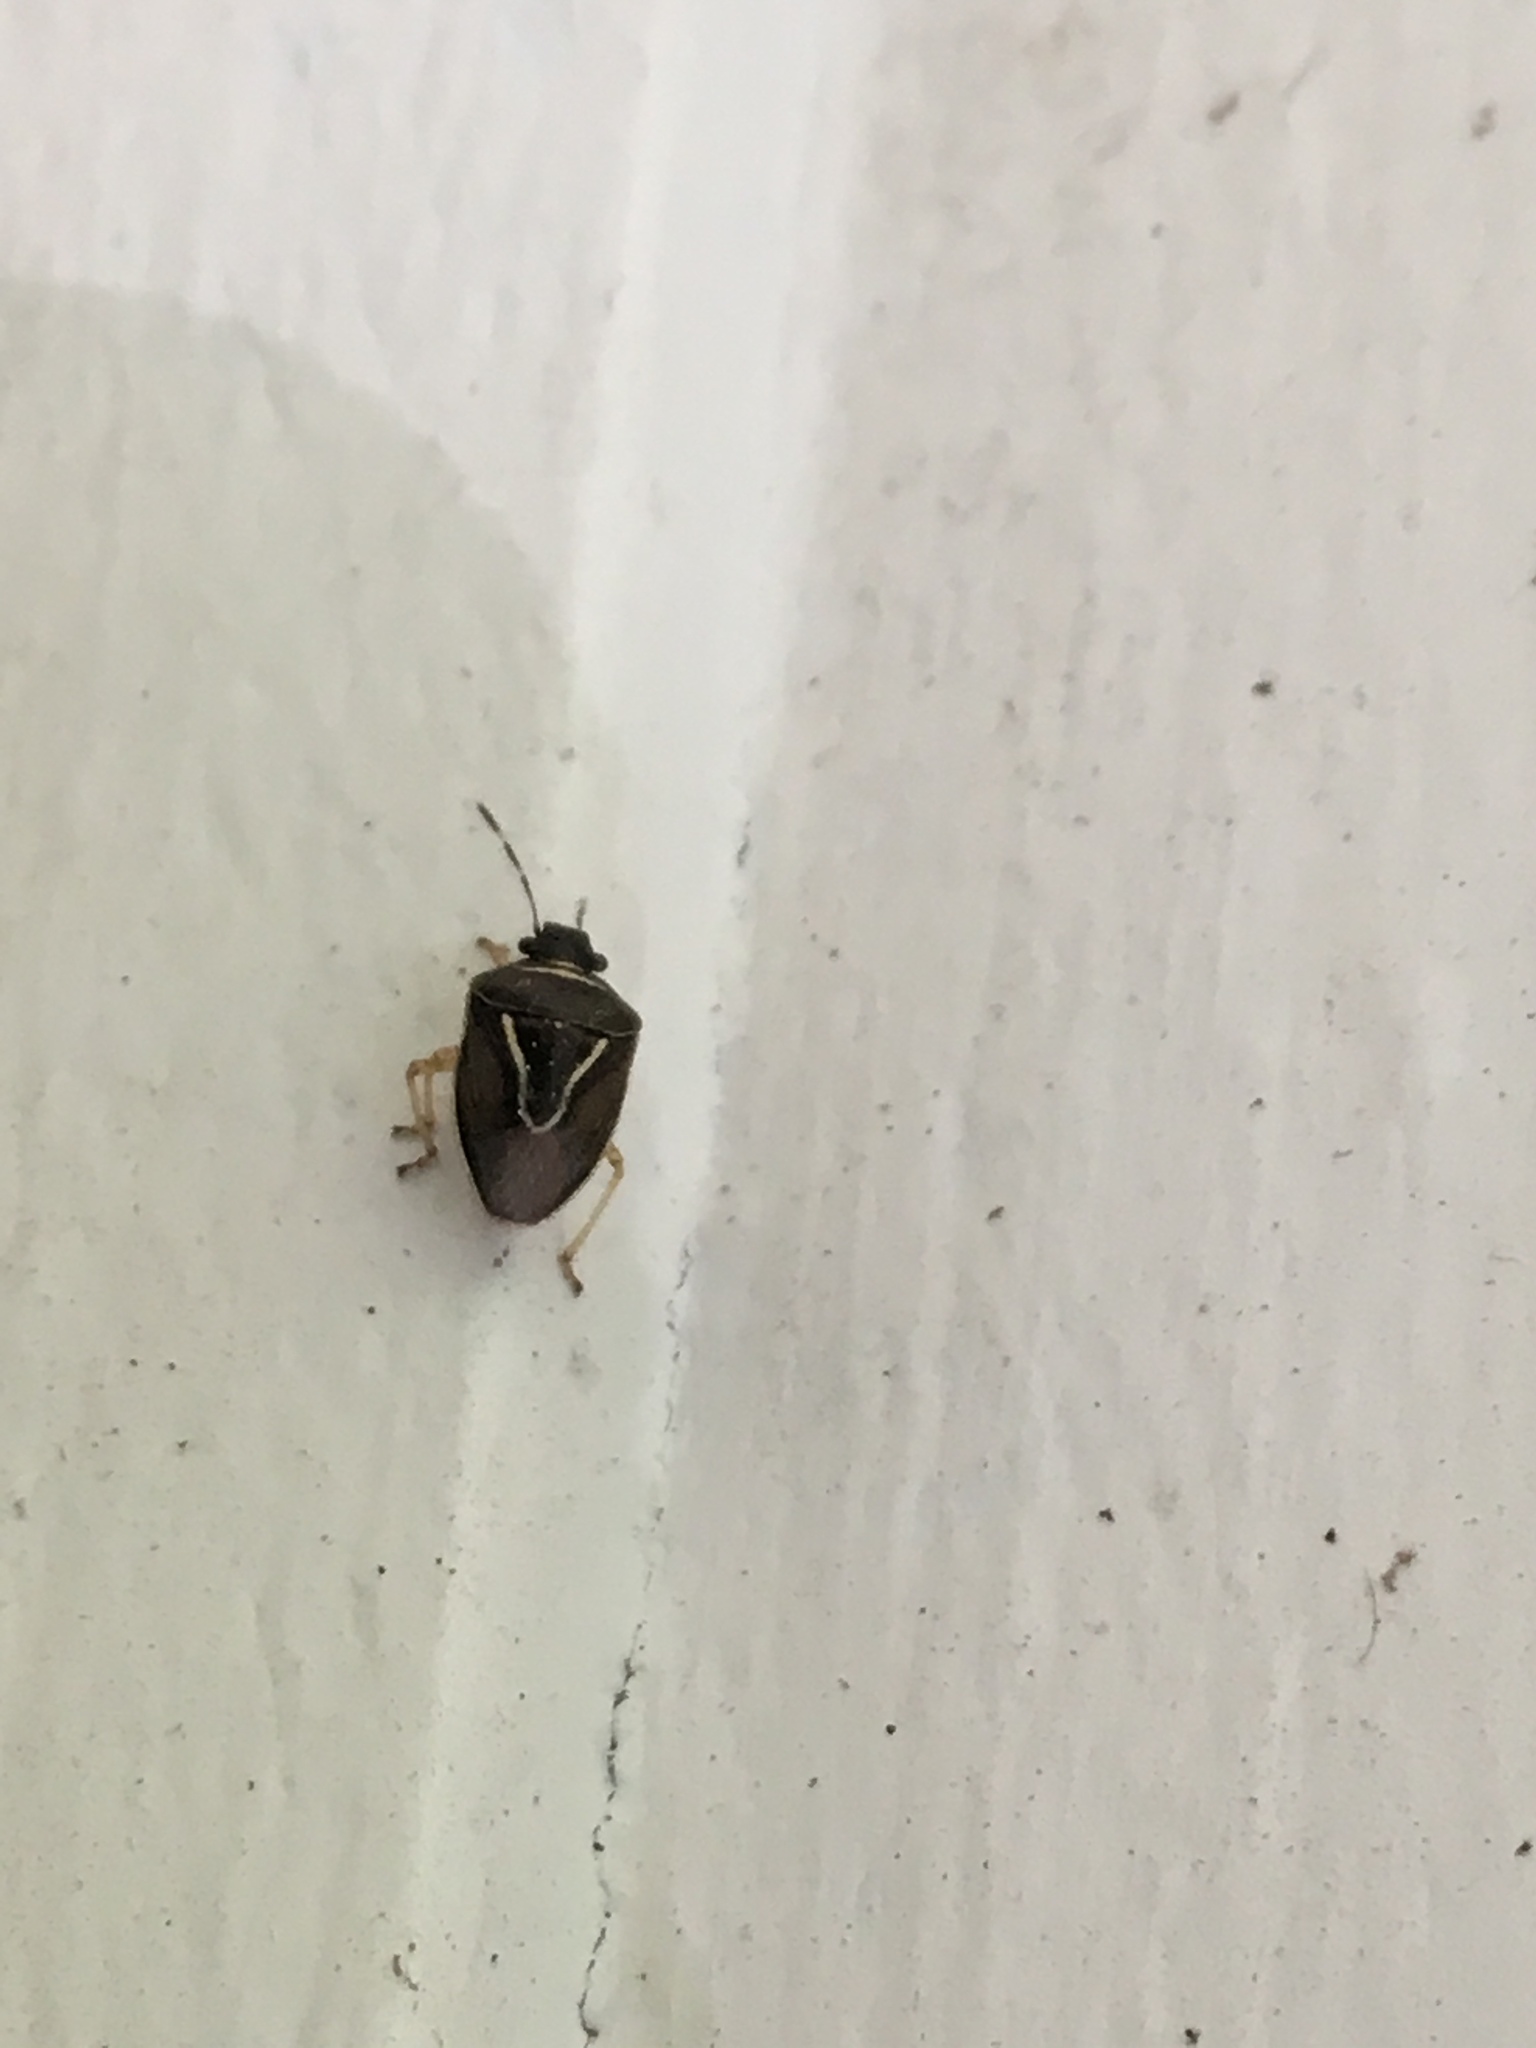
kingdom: Animalia
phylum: Arthropoda
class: Insecta
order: Hemiptera
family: Pentatomidae
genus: Mormidea
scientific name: Mormidea lugens
